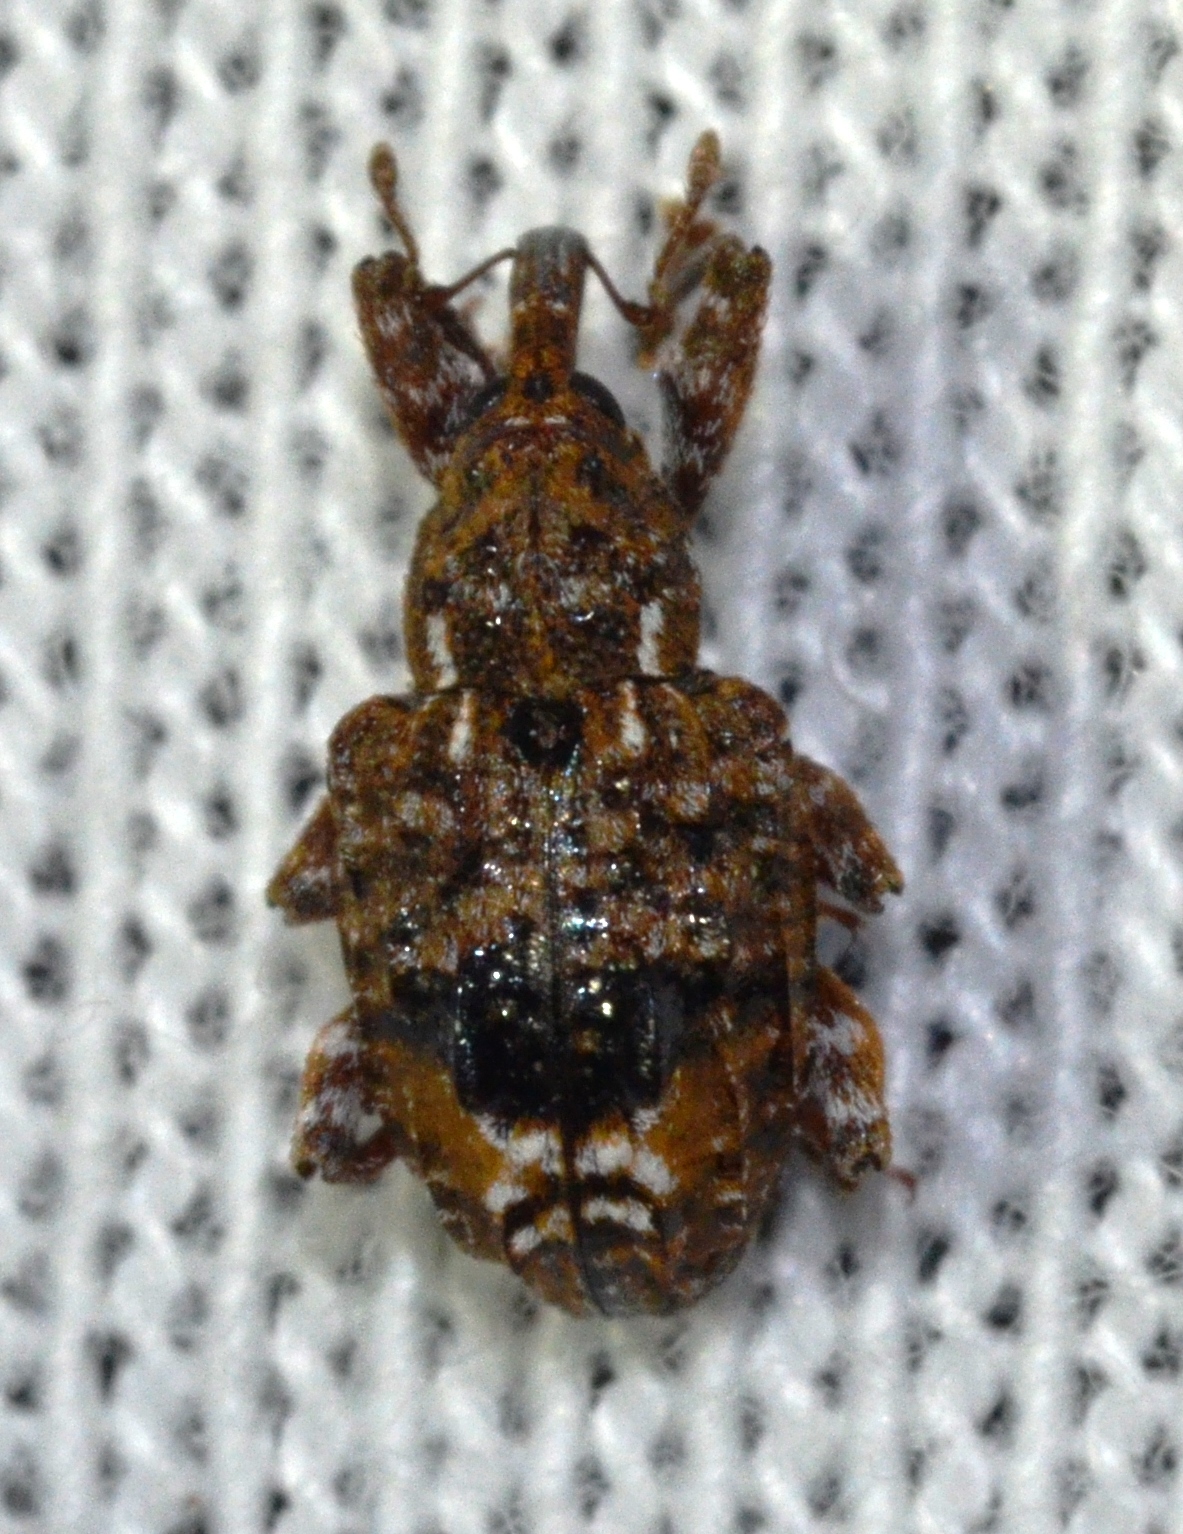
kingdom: Animalia
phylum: Arthropoda
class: Insecta
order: Coleoptera
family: Curculionidae
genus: Conotrachelus
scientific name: Conotrachelus nenuphar
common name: Plum curculio
